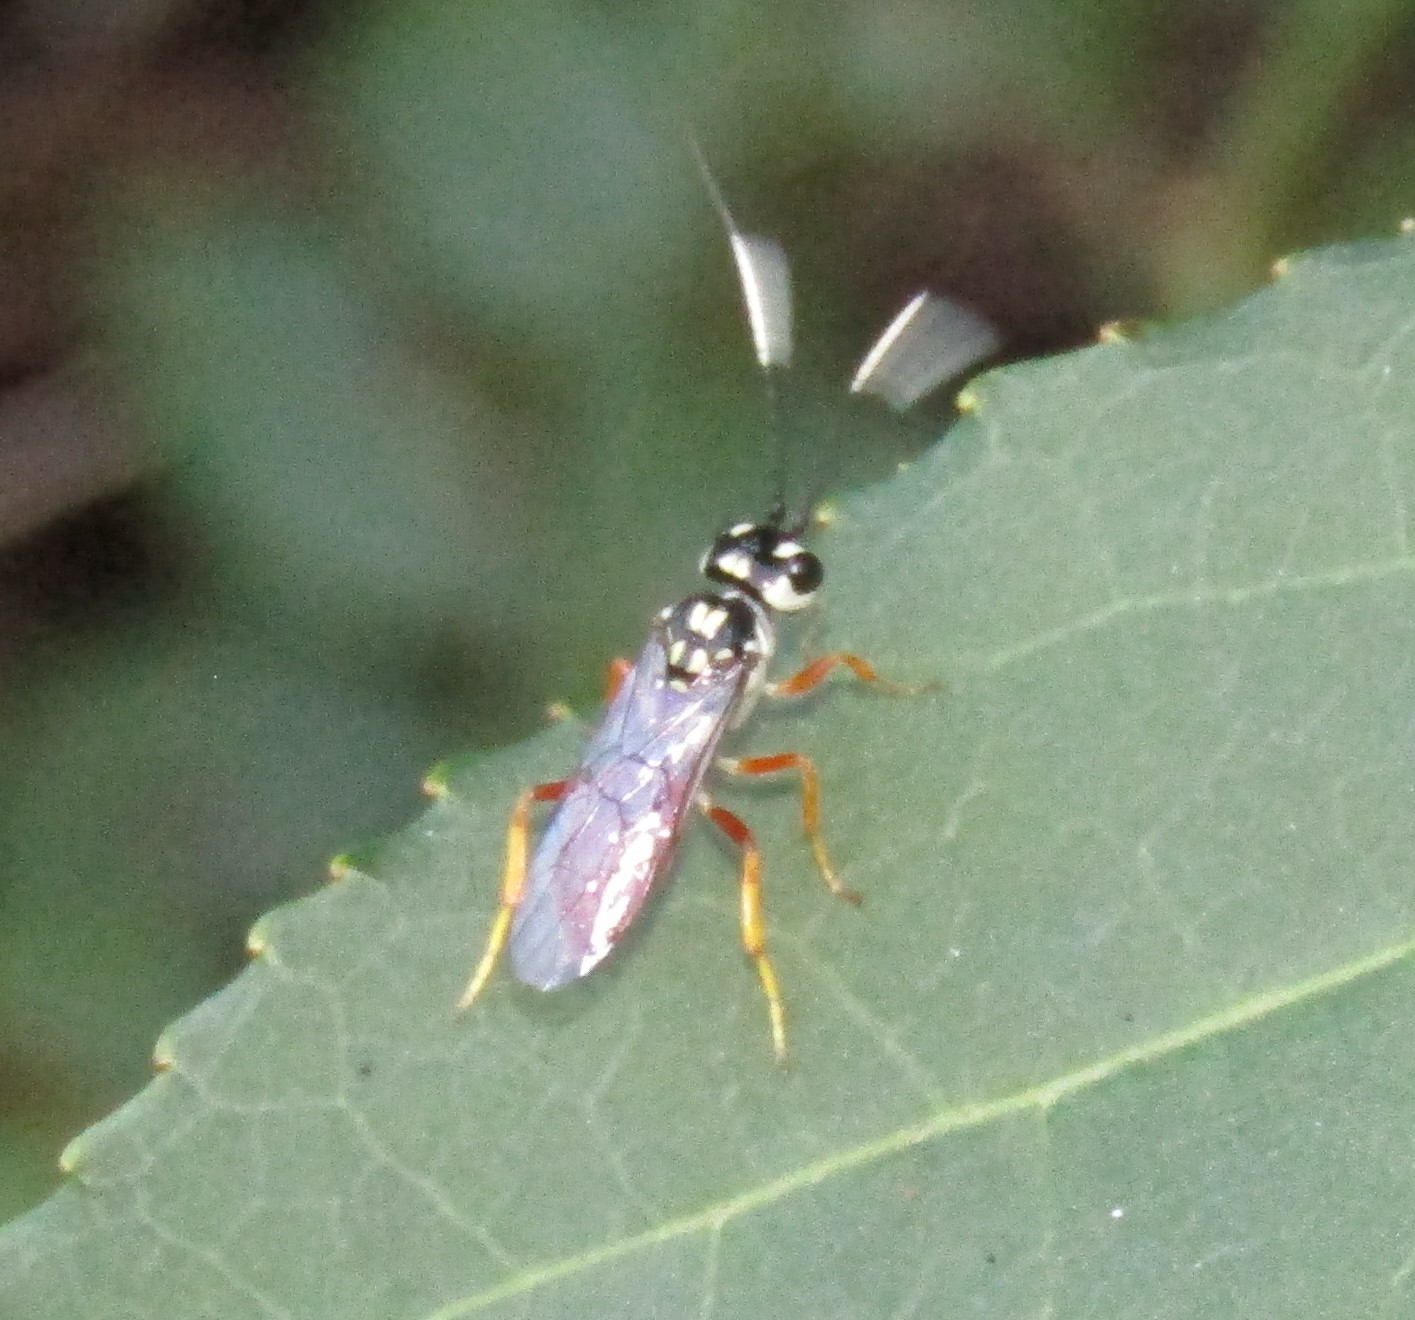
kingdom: Animalia
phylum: Arthropoda
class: Insecta
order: Hymenoptera
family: Trigonalidae
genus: Orthogonalys
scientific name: Orthogonalys pulchella
